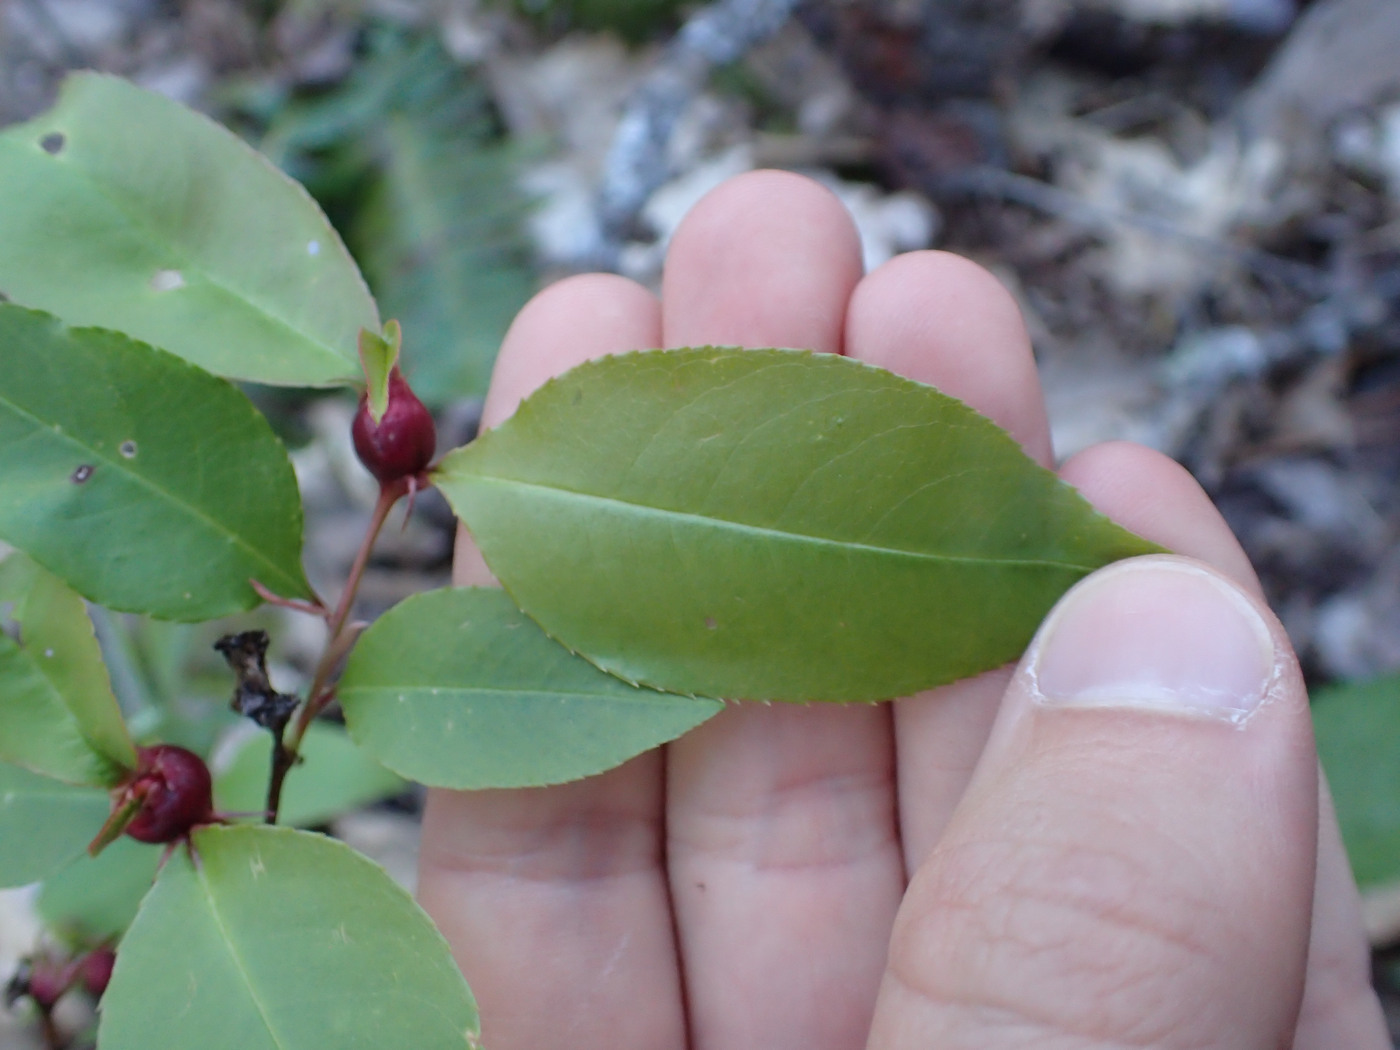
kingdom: Animalia
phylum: Arthropoda
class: Insecta
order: Diptera
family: Cecidomyiidae
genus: Contarinia
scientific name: Contarinia cerasiserotinae
